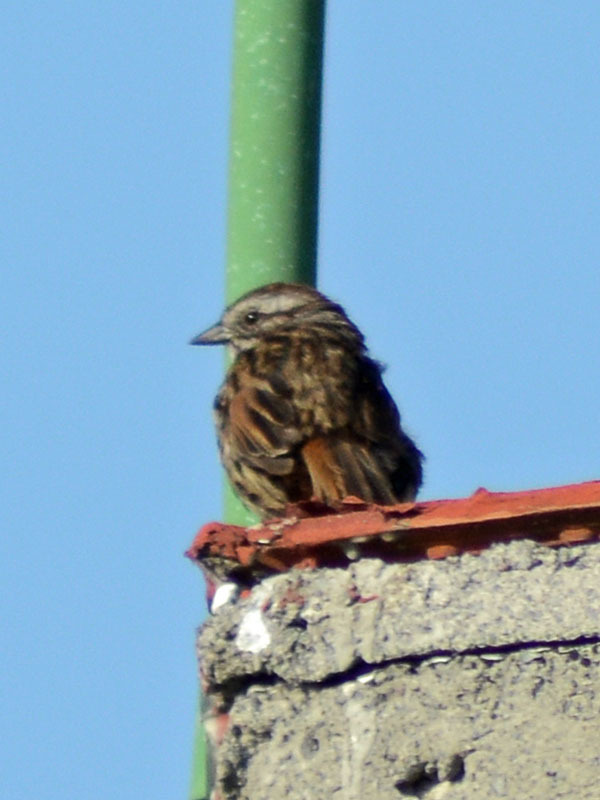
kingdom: Animalia
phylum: Chordata
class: Aves
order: Passeriformes
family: Passerellidae
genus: Melospiza
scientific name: Melospiza melodia
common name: Song sparrow
